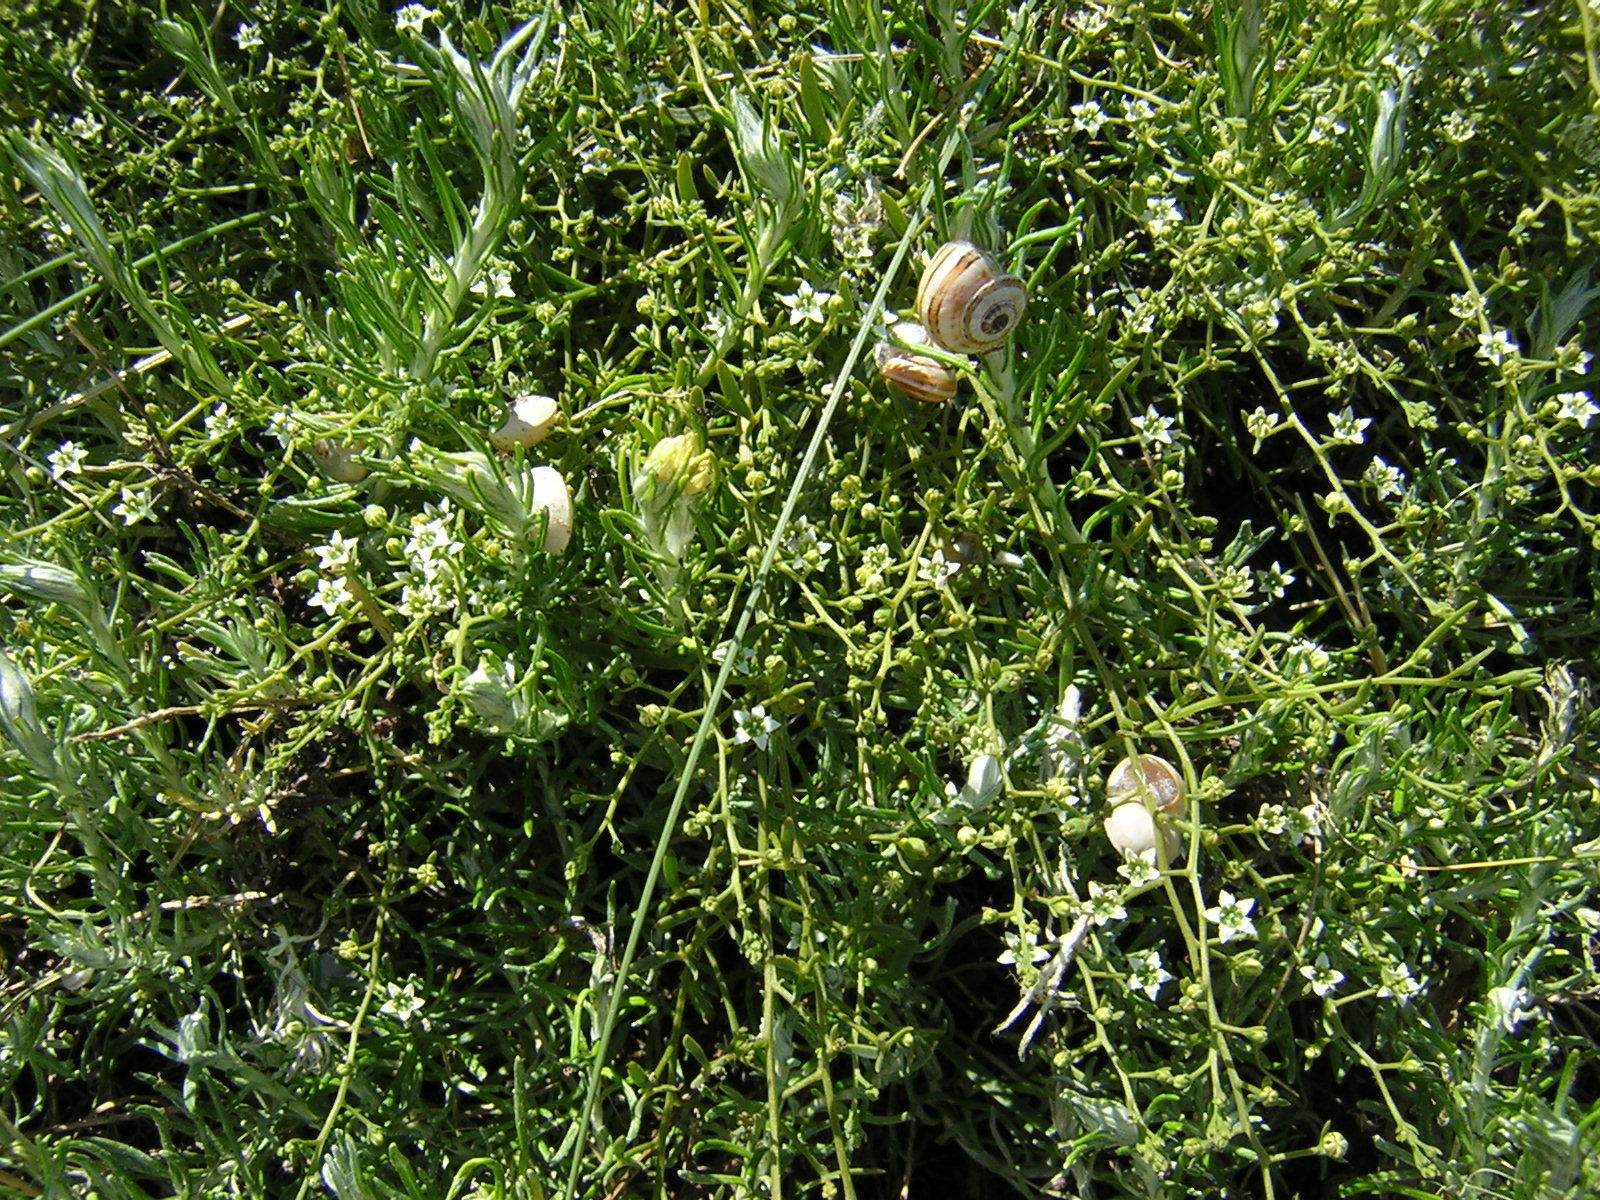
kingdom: Plantae
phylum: Tracheophyta
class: Magnoliopsida
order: Santalales
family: Thesiaceae
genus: Thesium
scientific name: Thesium humifusum
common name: Bastard-toadflax
